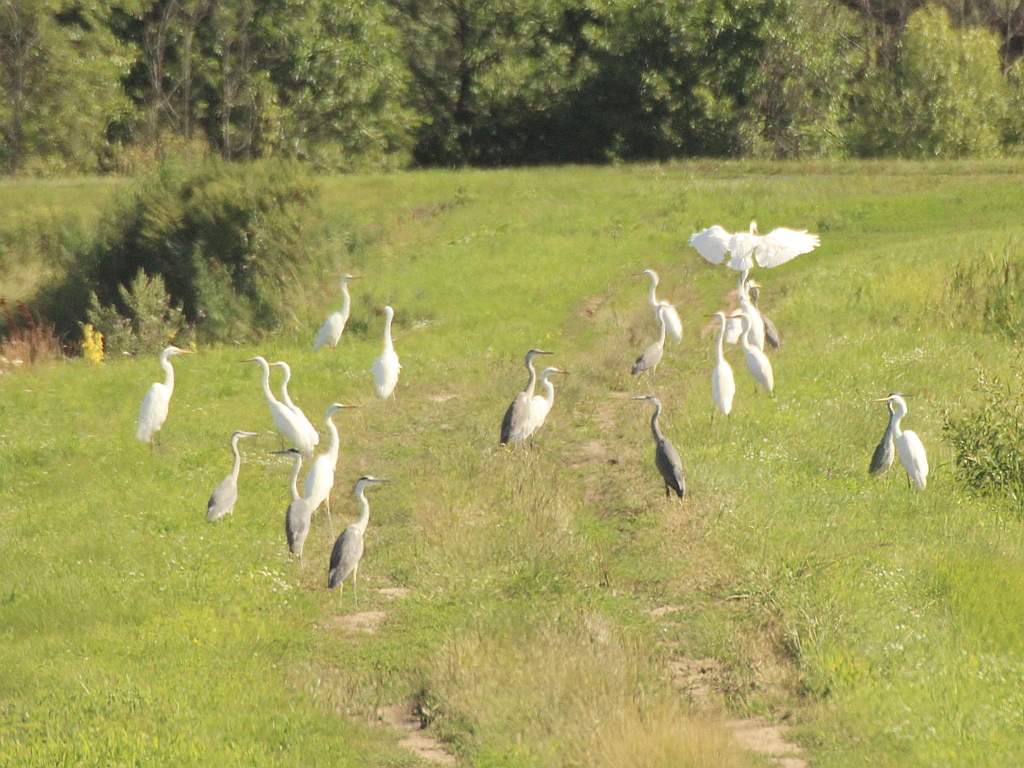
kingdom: Animalia
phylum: Chordata
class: Aves
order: Pelecaniformes
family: Ardeidae
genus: Ardea
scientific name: Ardea alba
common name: Great egret
